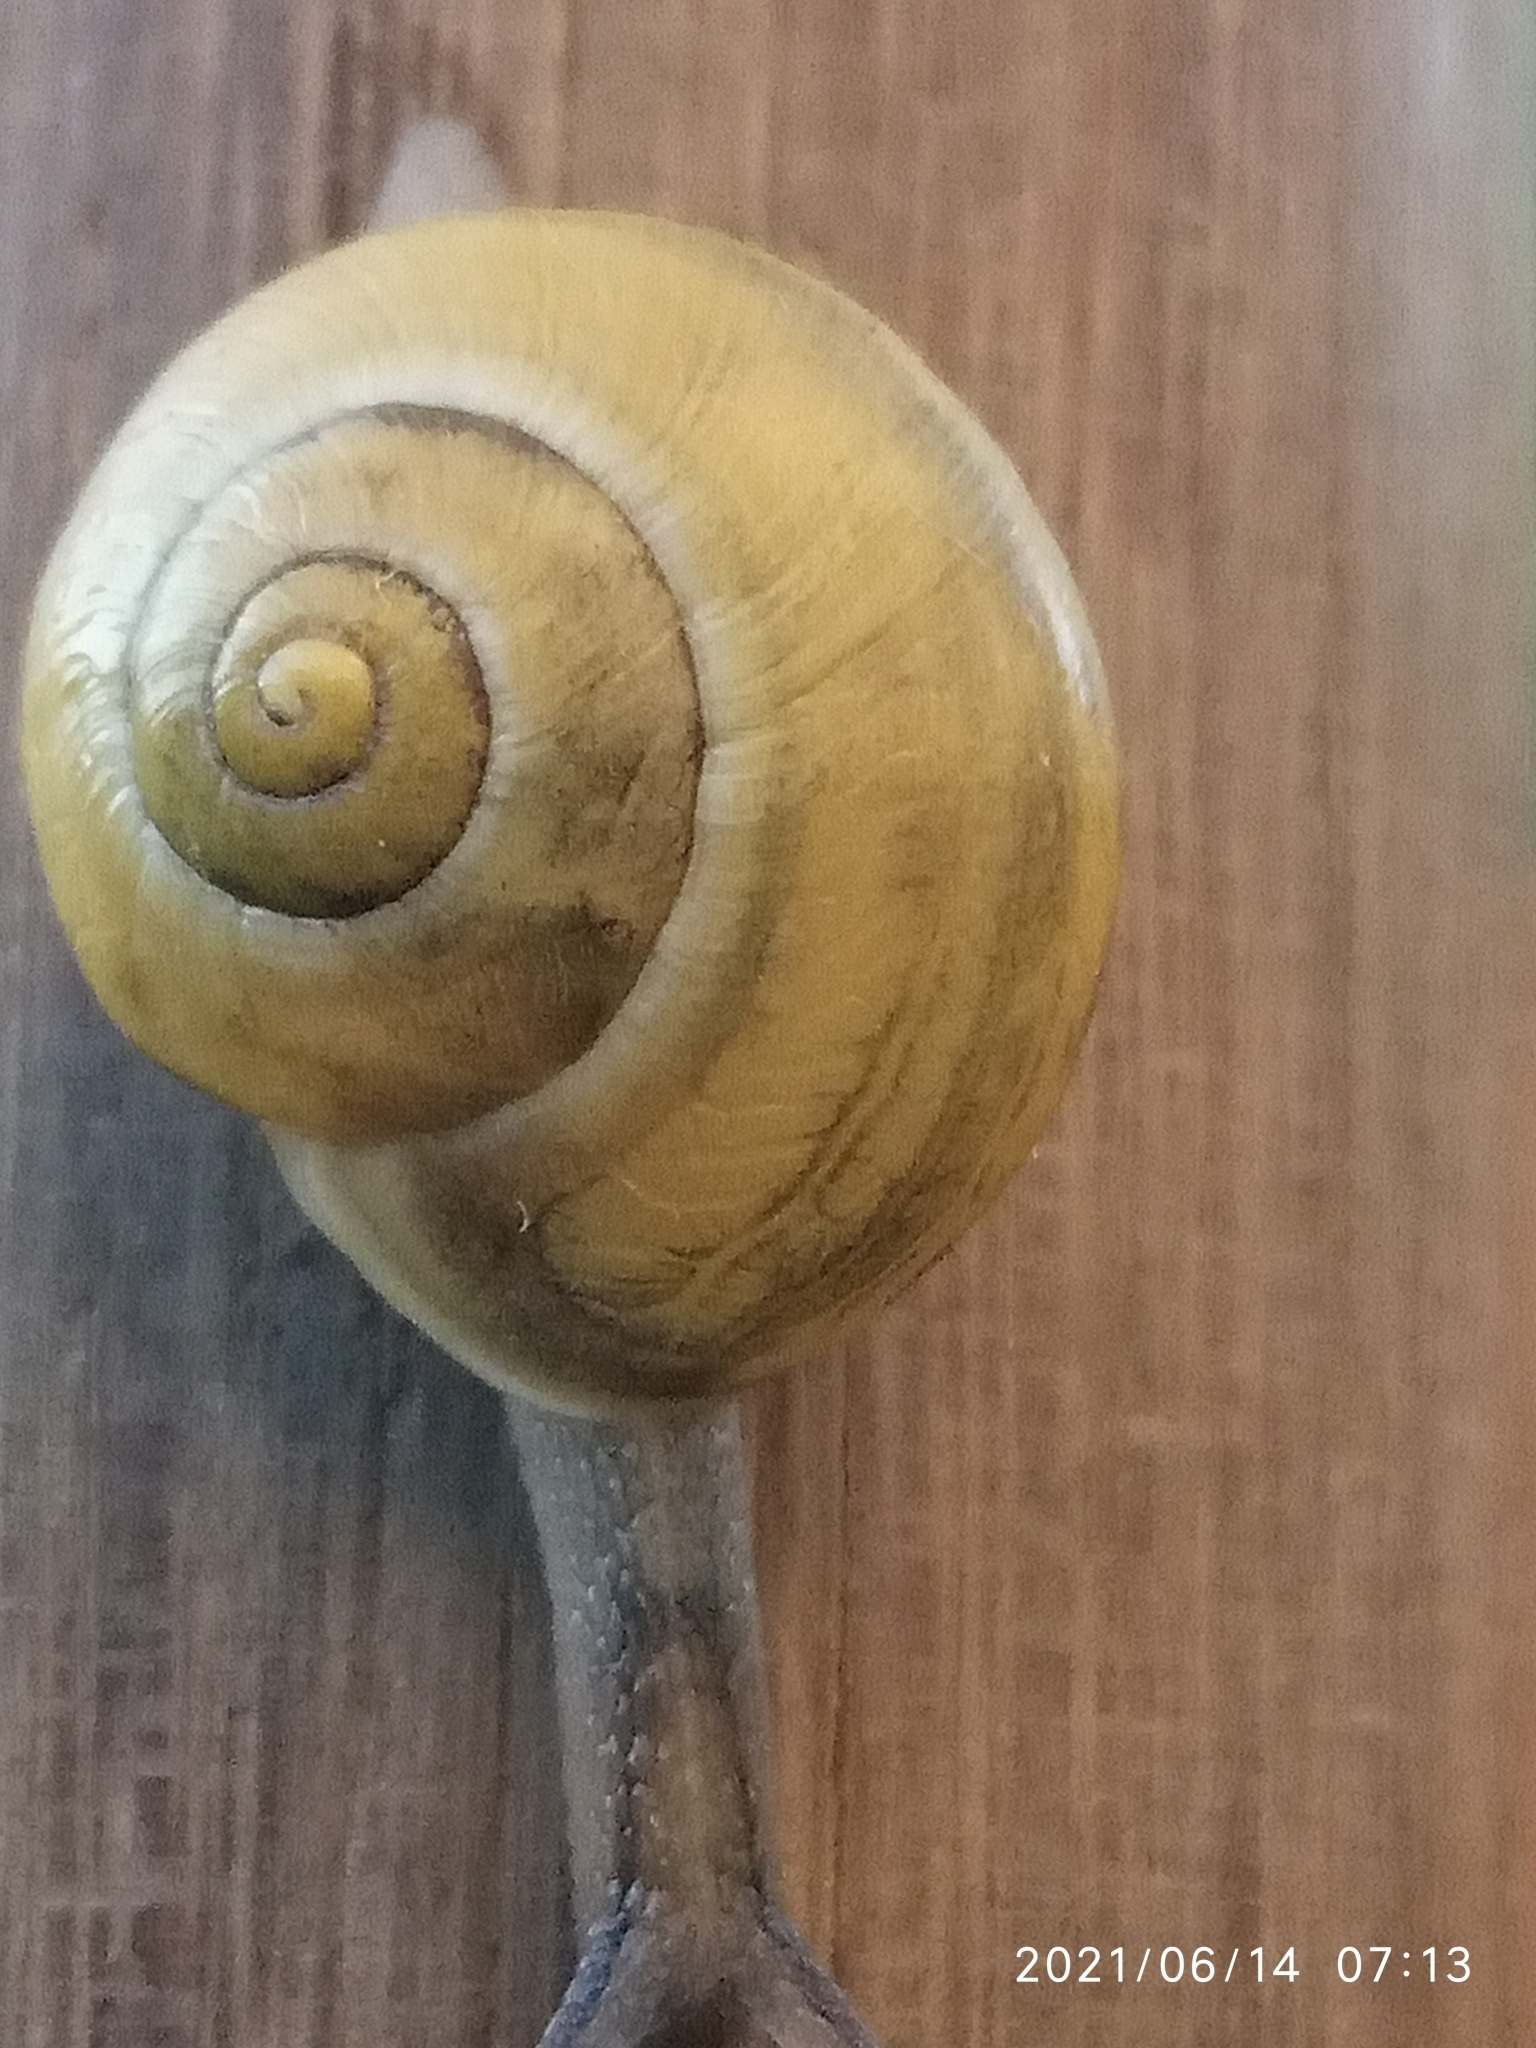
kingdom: Animalia
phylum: Mollusca
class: Gastropoda
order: Stylommatophora
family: Helicidae
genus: Cepaea
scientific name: Cepaea
